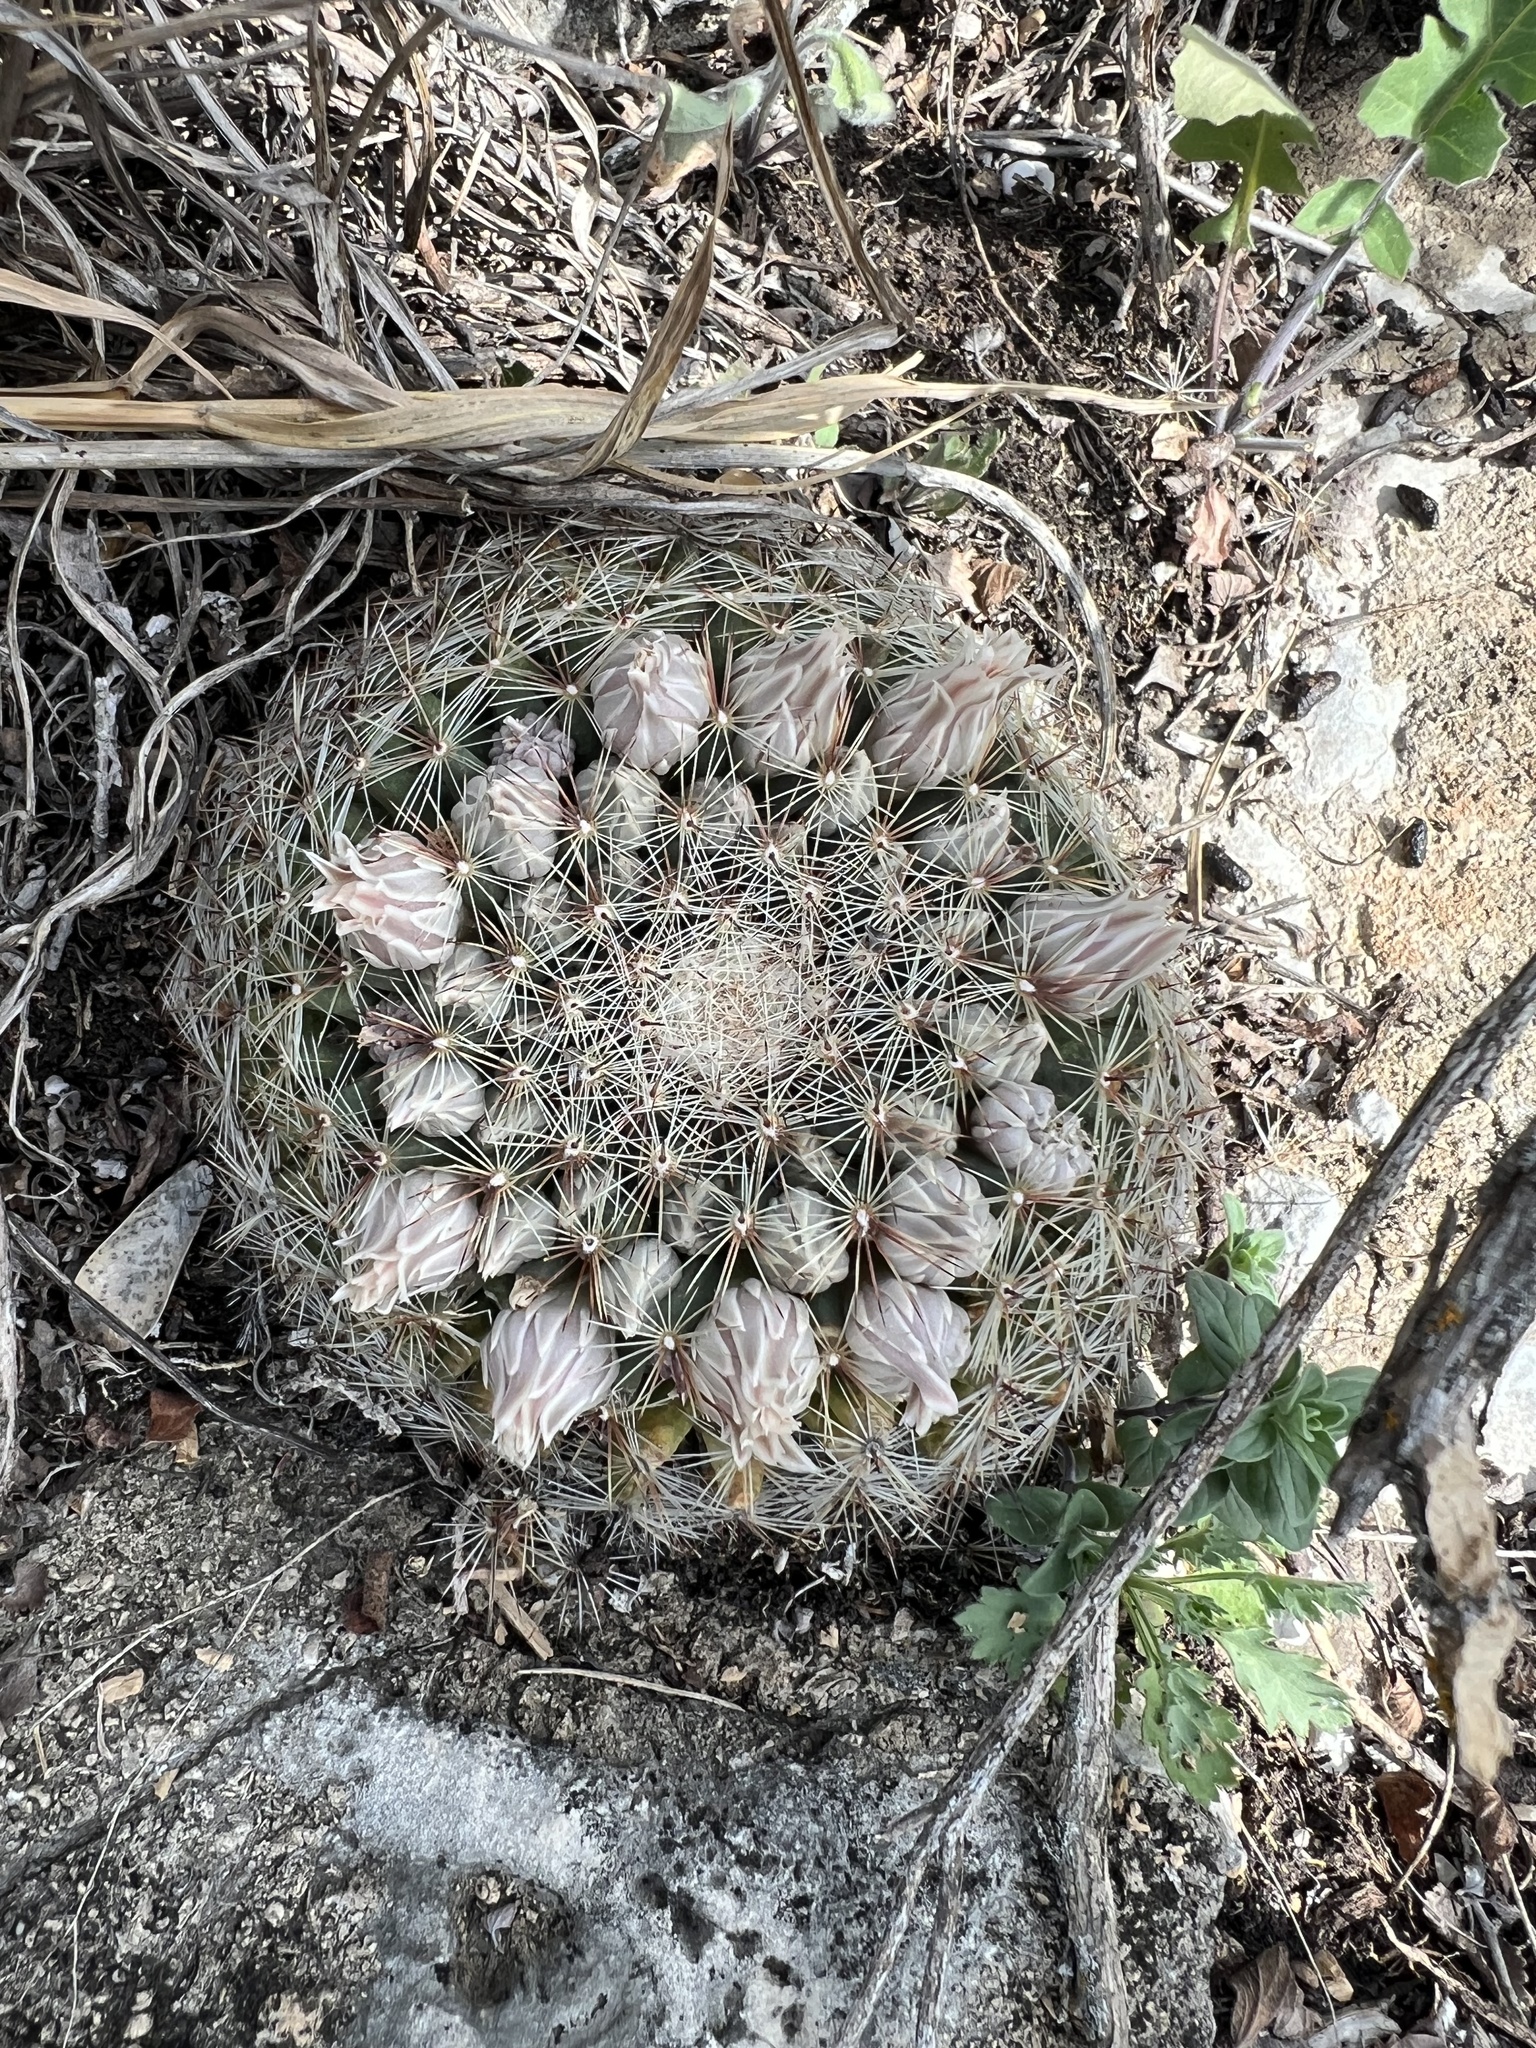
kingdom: Plantae
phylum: Tracheophyta
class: Magnoliopsida
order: Caryophyllales
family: Cactaceae
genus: Mammillaria
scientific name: Mammillaria heyderi
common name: Little nipple cactus
